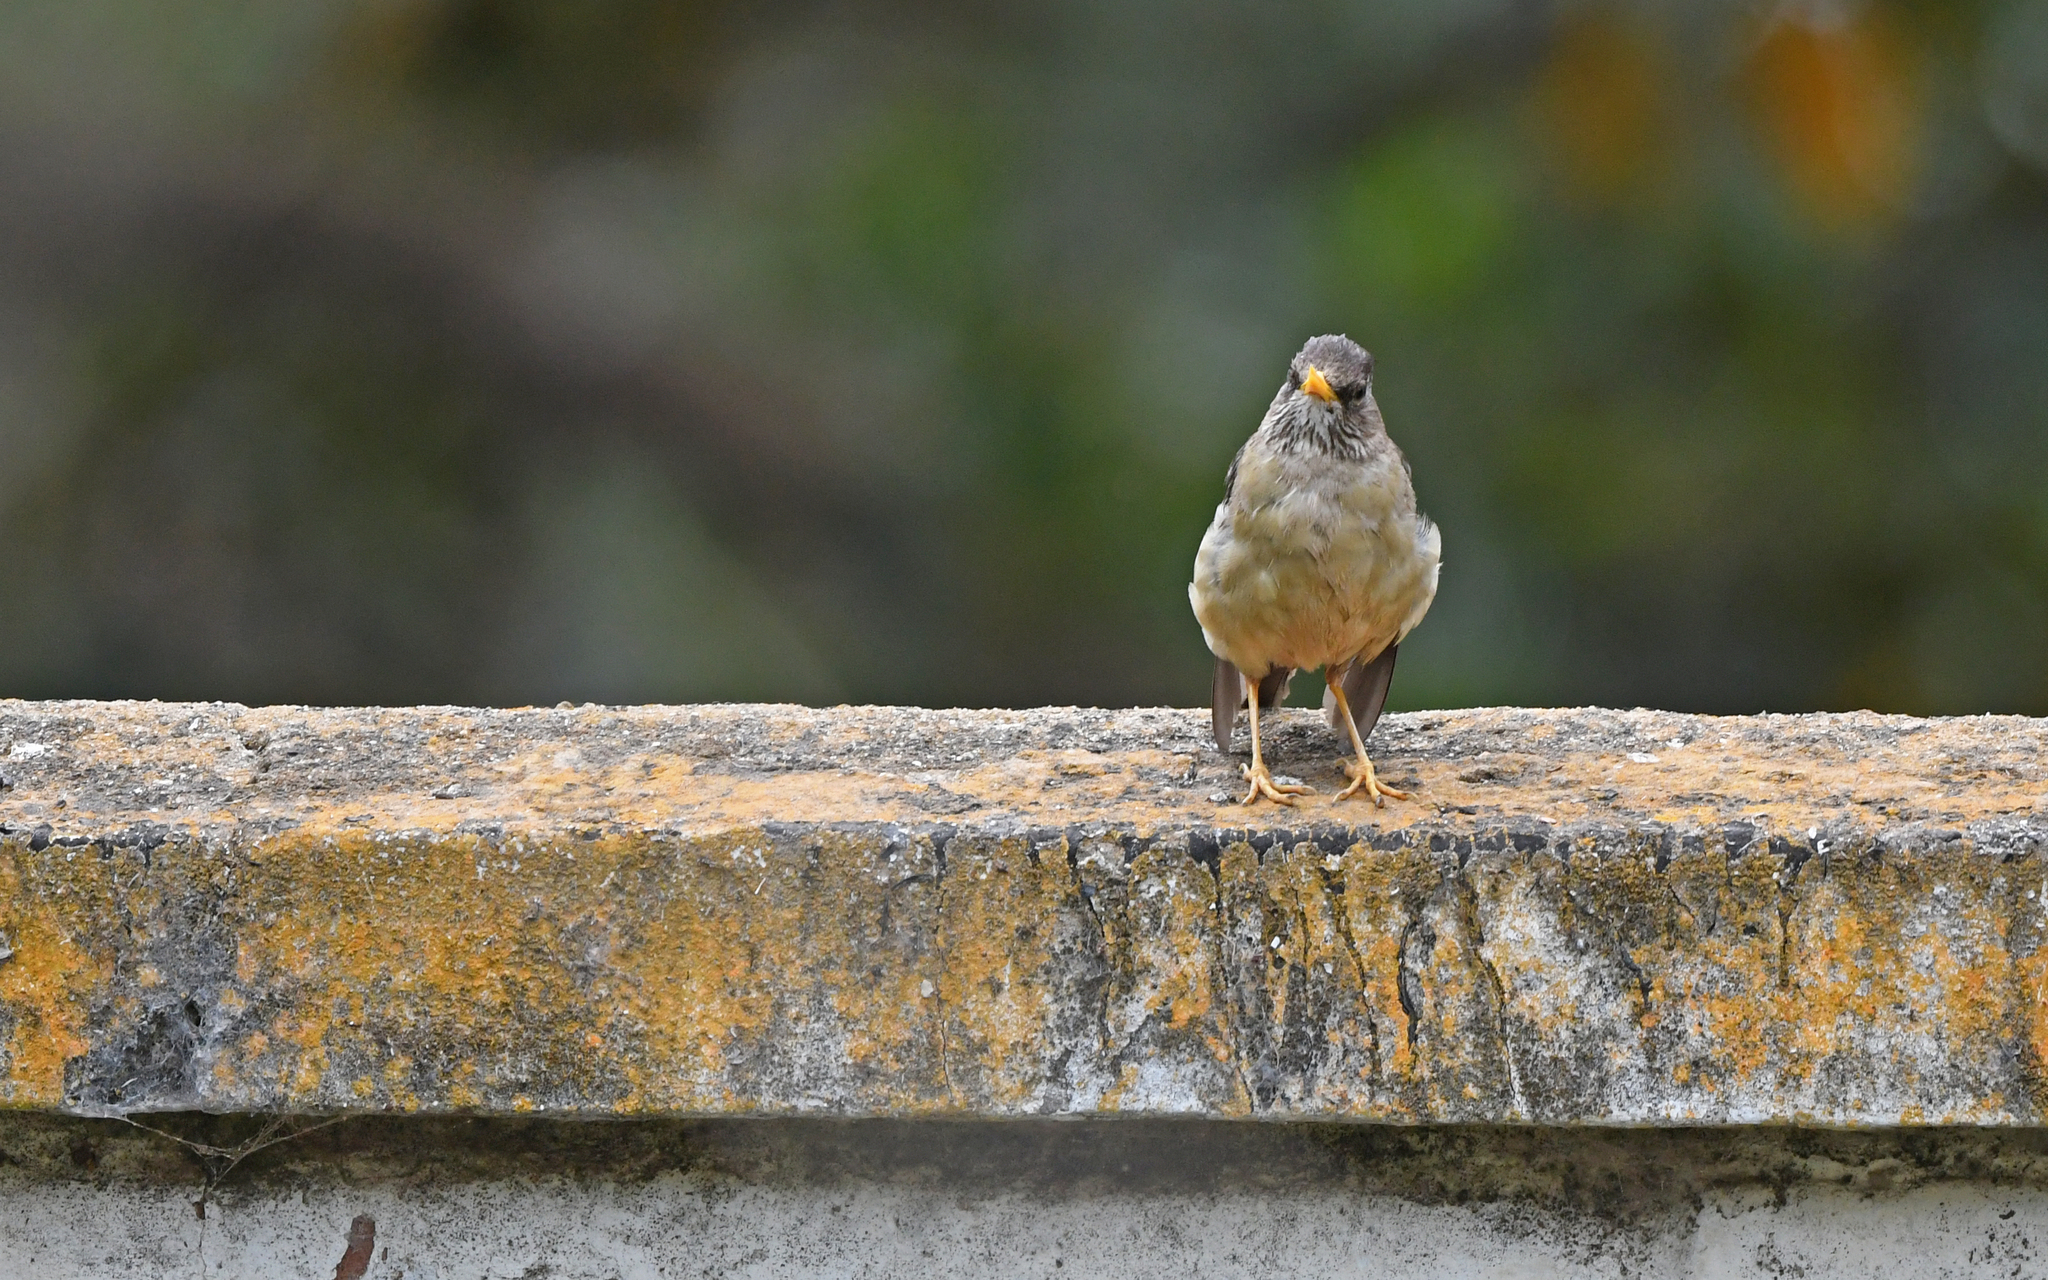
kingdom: Animalia
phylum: Chordata
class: Aves
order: Passeriformes
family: Turdidae
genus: Turdus
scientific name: Turdus falcklandii
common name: Austral thrush
